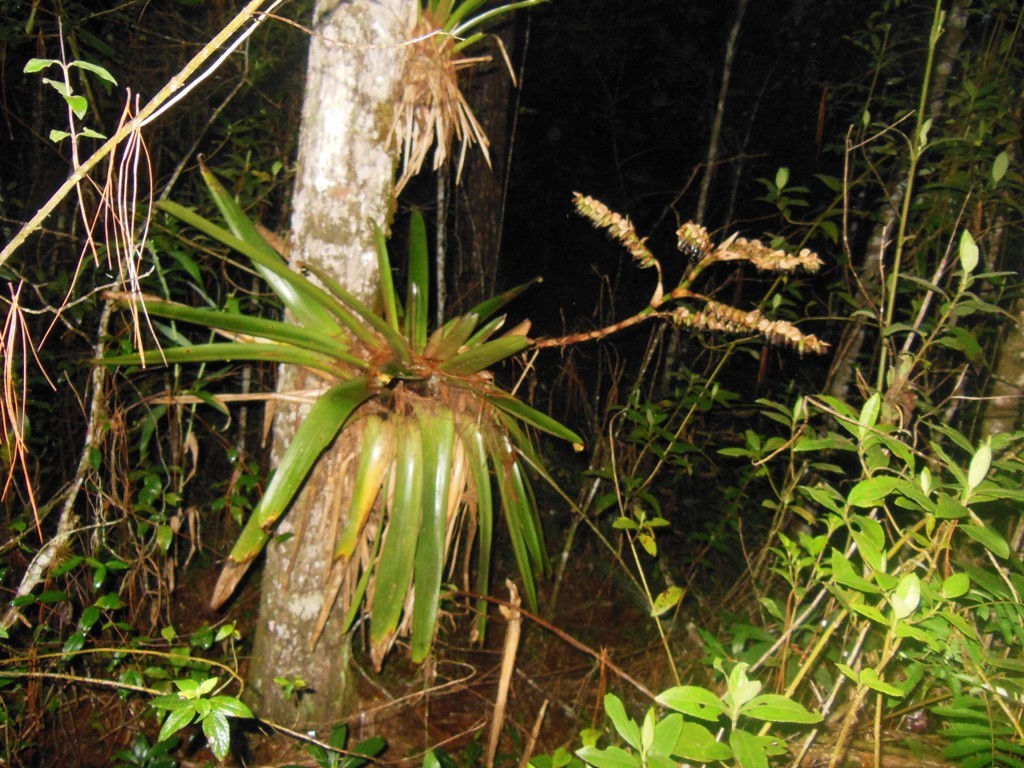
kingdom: Plantae
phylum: Tracheophyta
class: Liliopsida
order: Poales
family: Bromeliaceae
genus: Werauhia
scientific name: Werauhia werckleana
